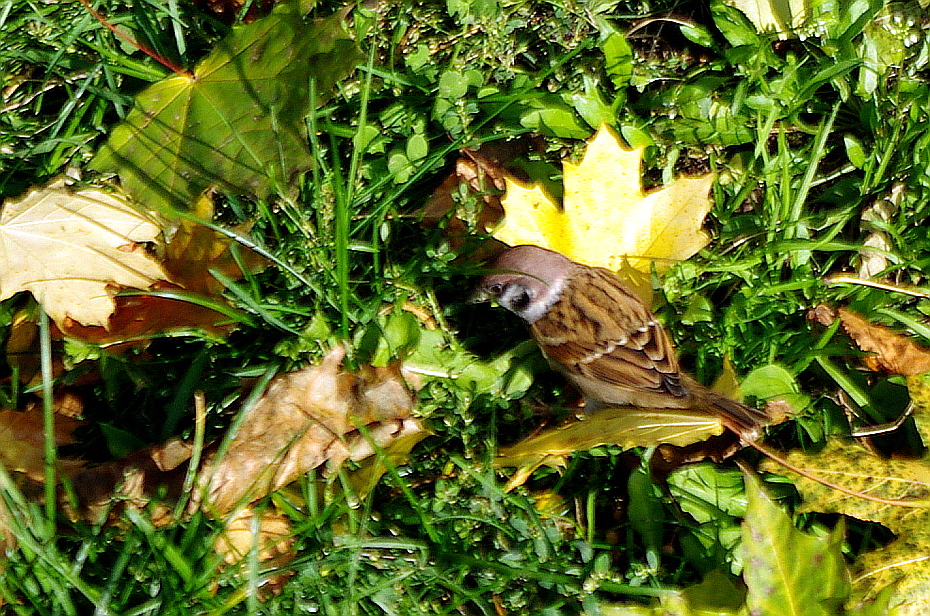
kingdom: Animalia
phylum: Chordata
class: Aves
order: Passeriformes
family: Passeridae
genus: Passer
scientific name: Passer montanus
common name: Eurasian tree sparrow
